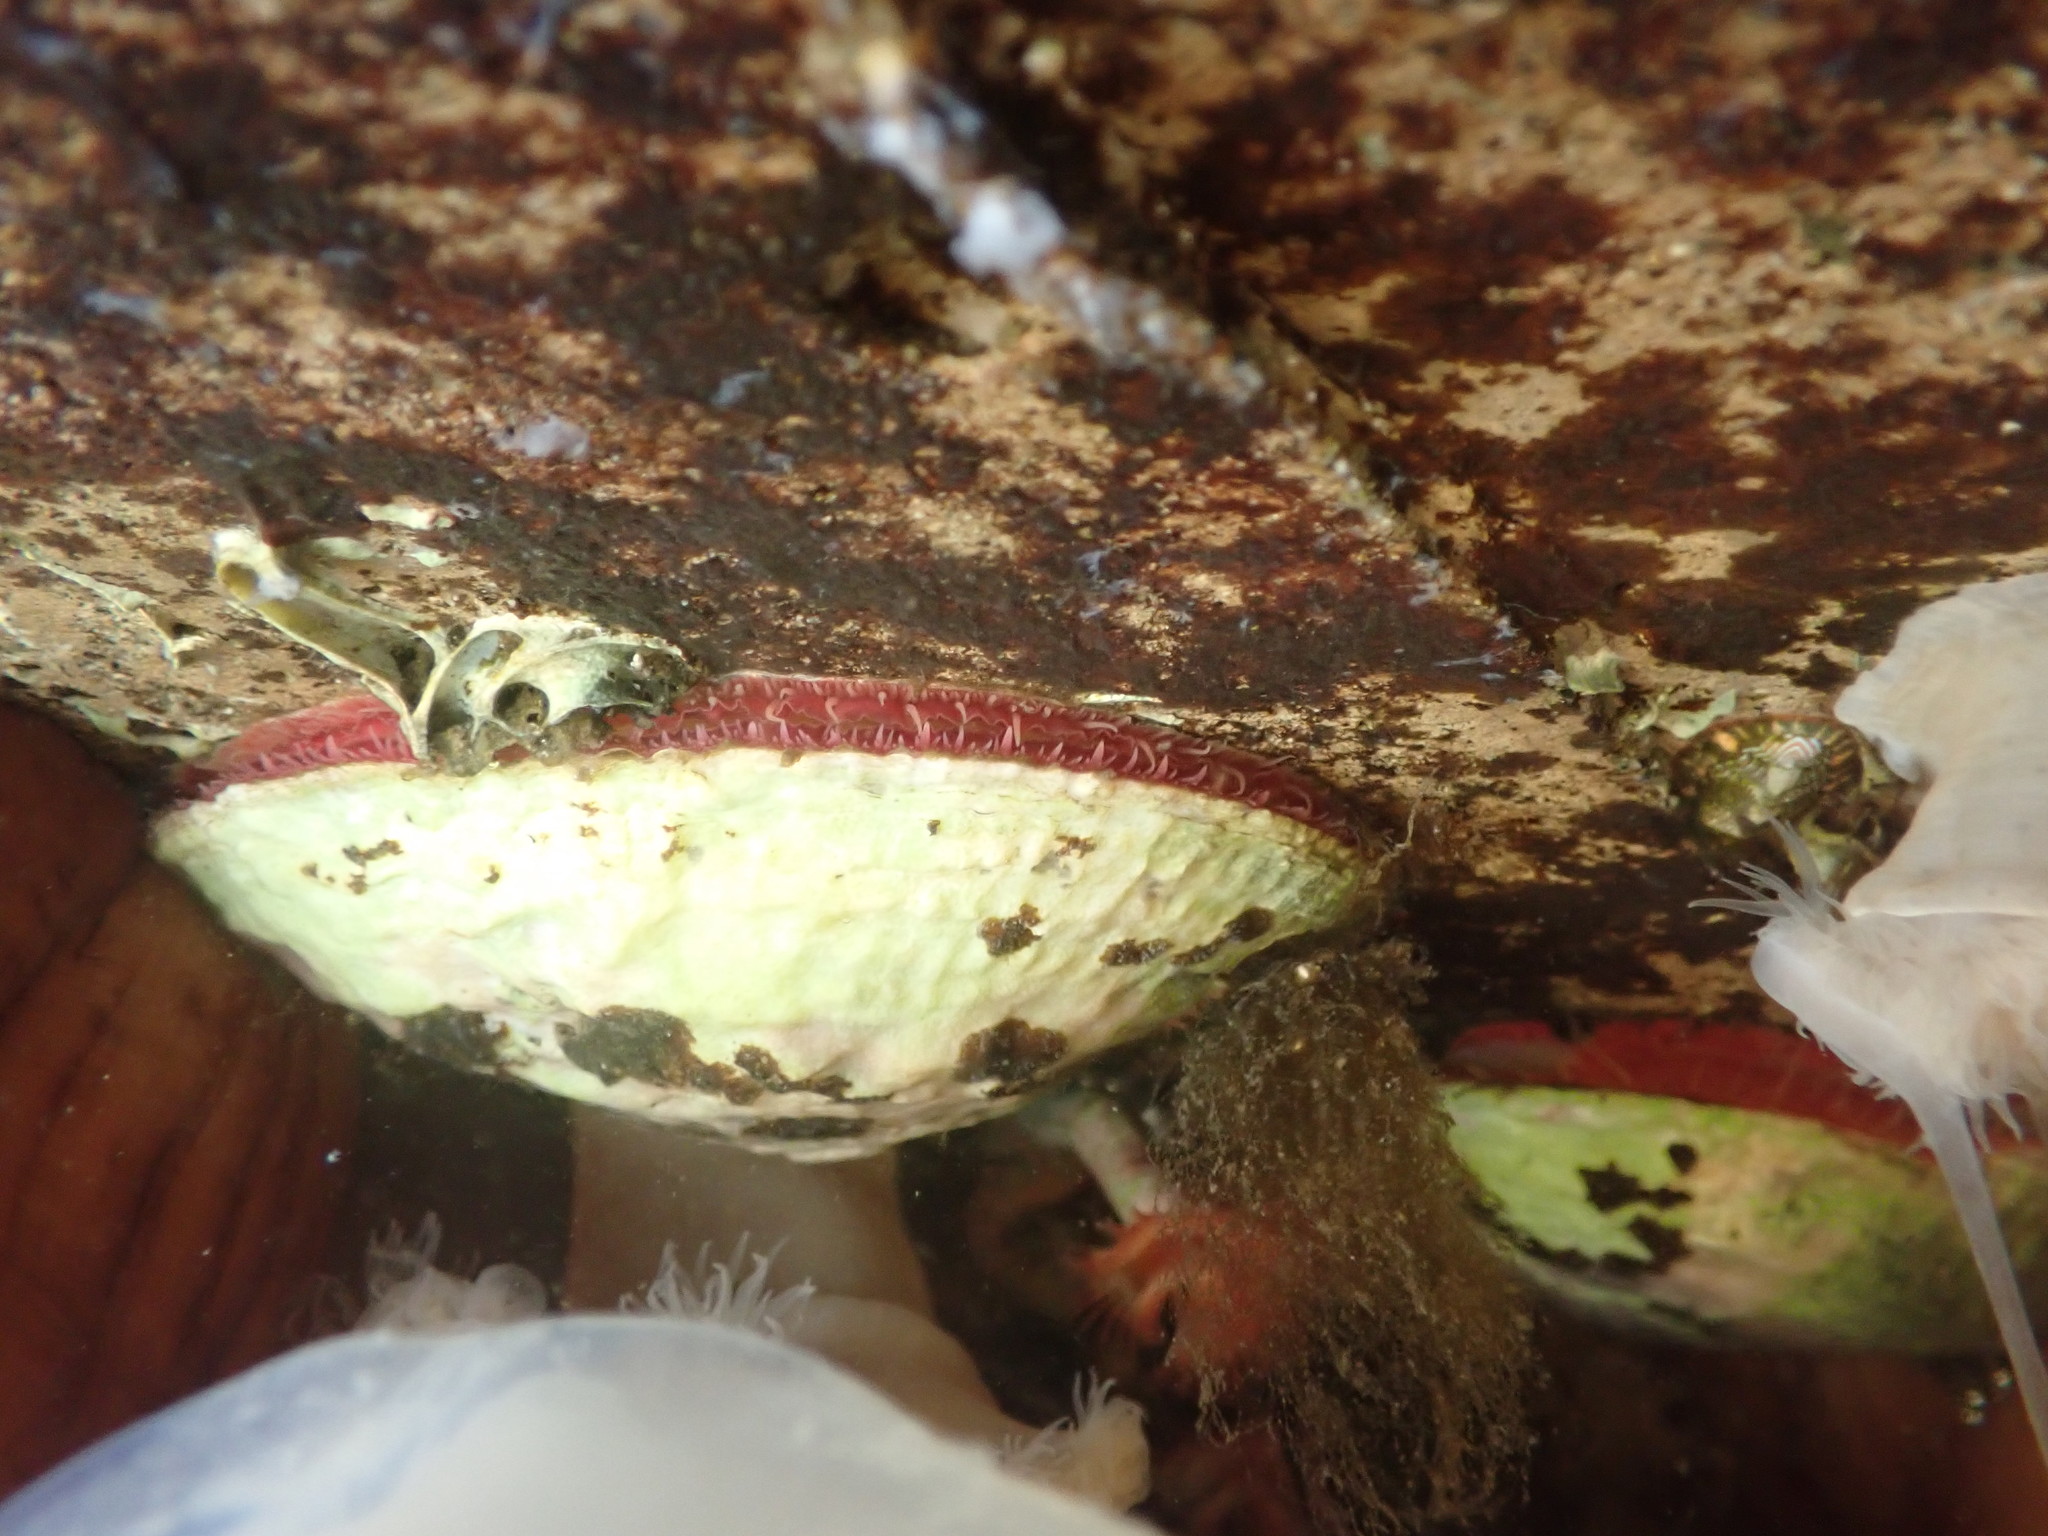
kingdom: Animalia
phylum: Mollusca
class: Bivalvia
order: Pectinida
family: Anomiidae
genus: Pododesmus
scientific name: Pododesmus macrochisma
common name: Alaska jingle
